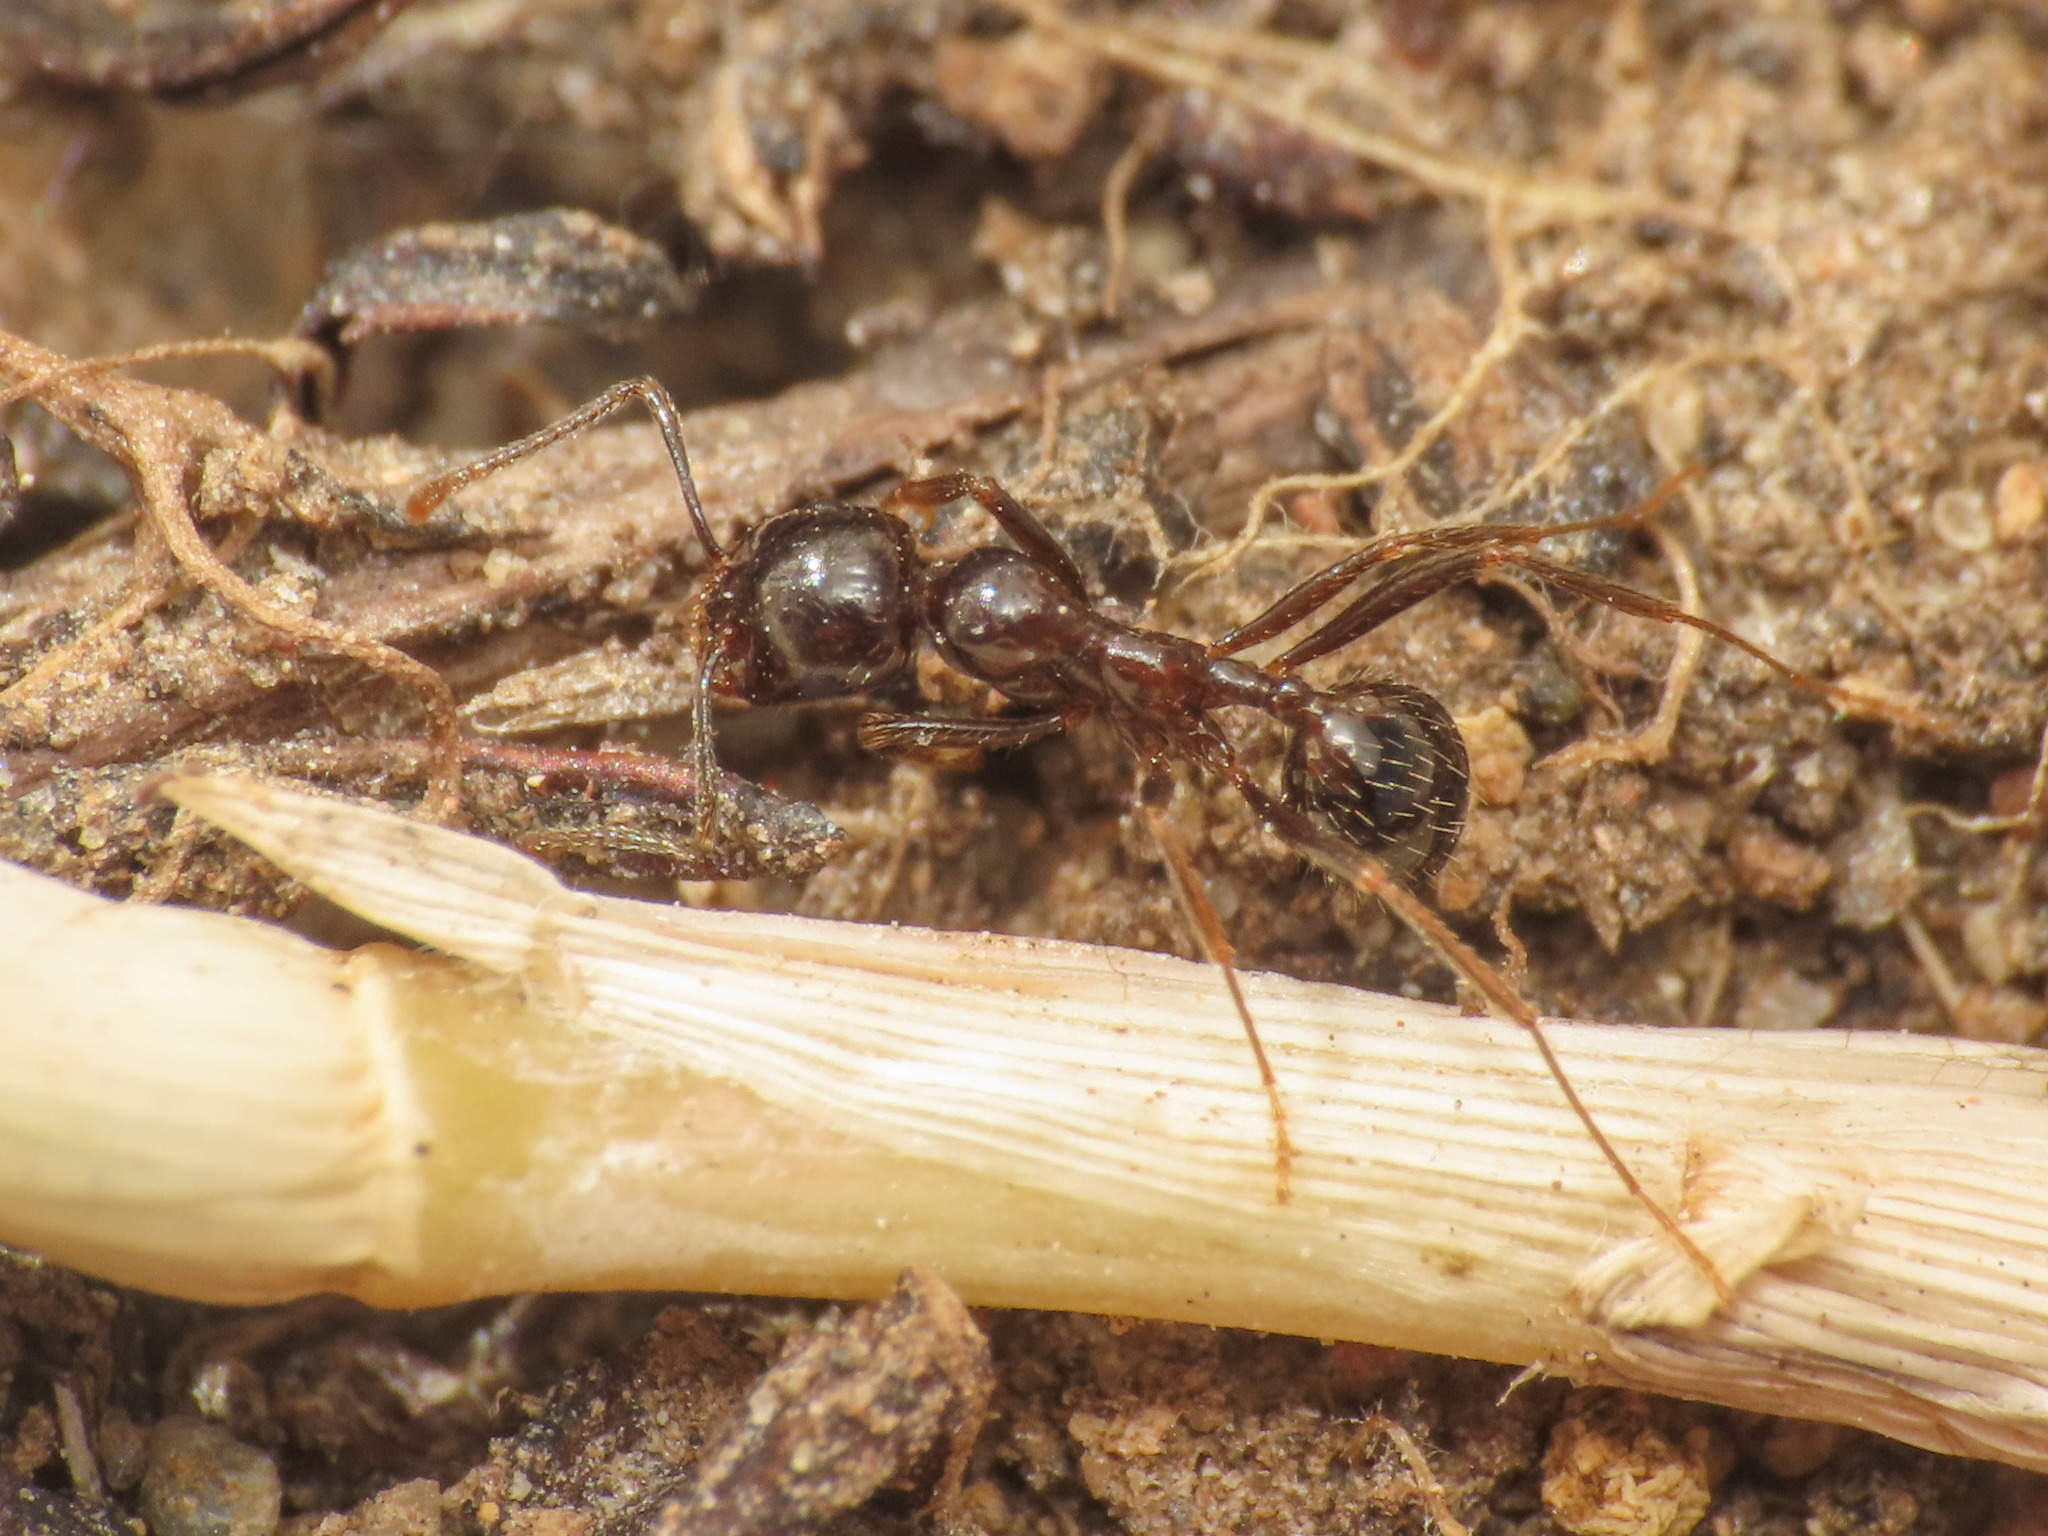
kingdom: Animalia
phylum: Arthropoda
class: Insecta
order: Hymenoptera
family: Formicidae
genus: Messor
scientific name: Messor ibericus
